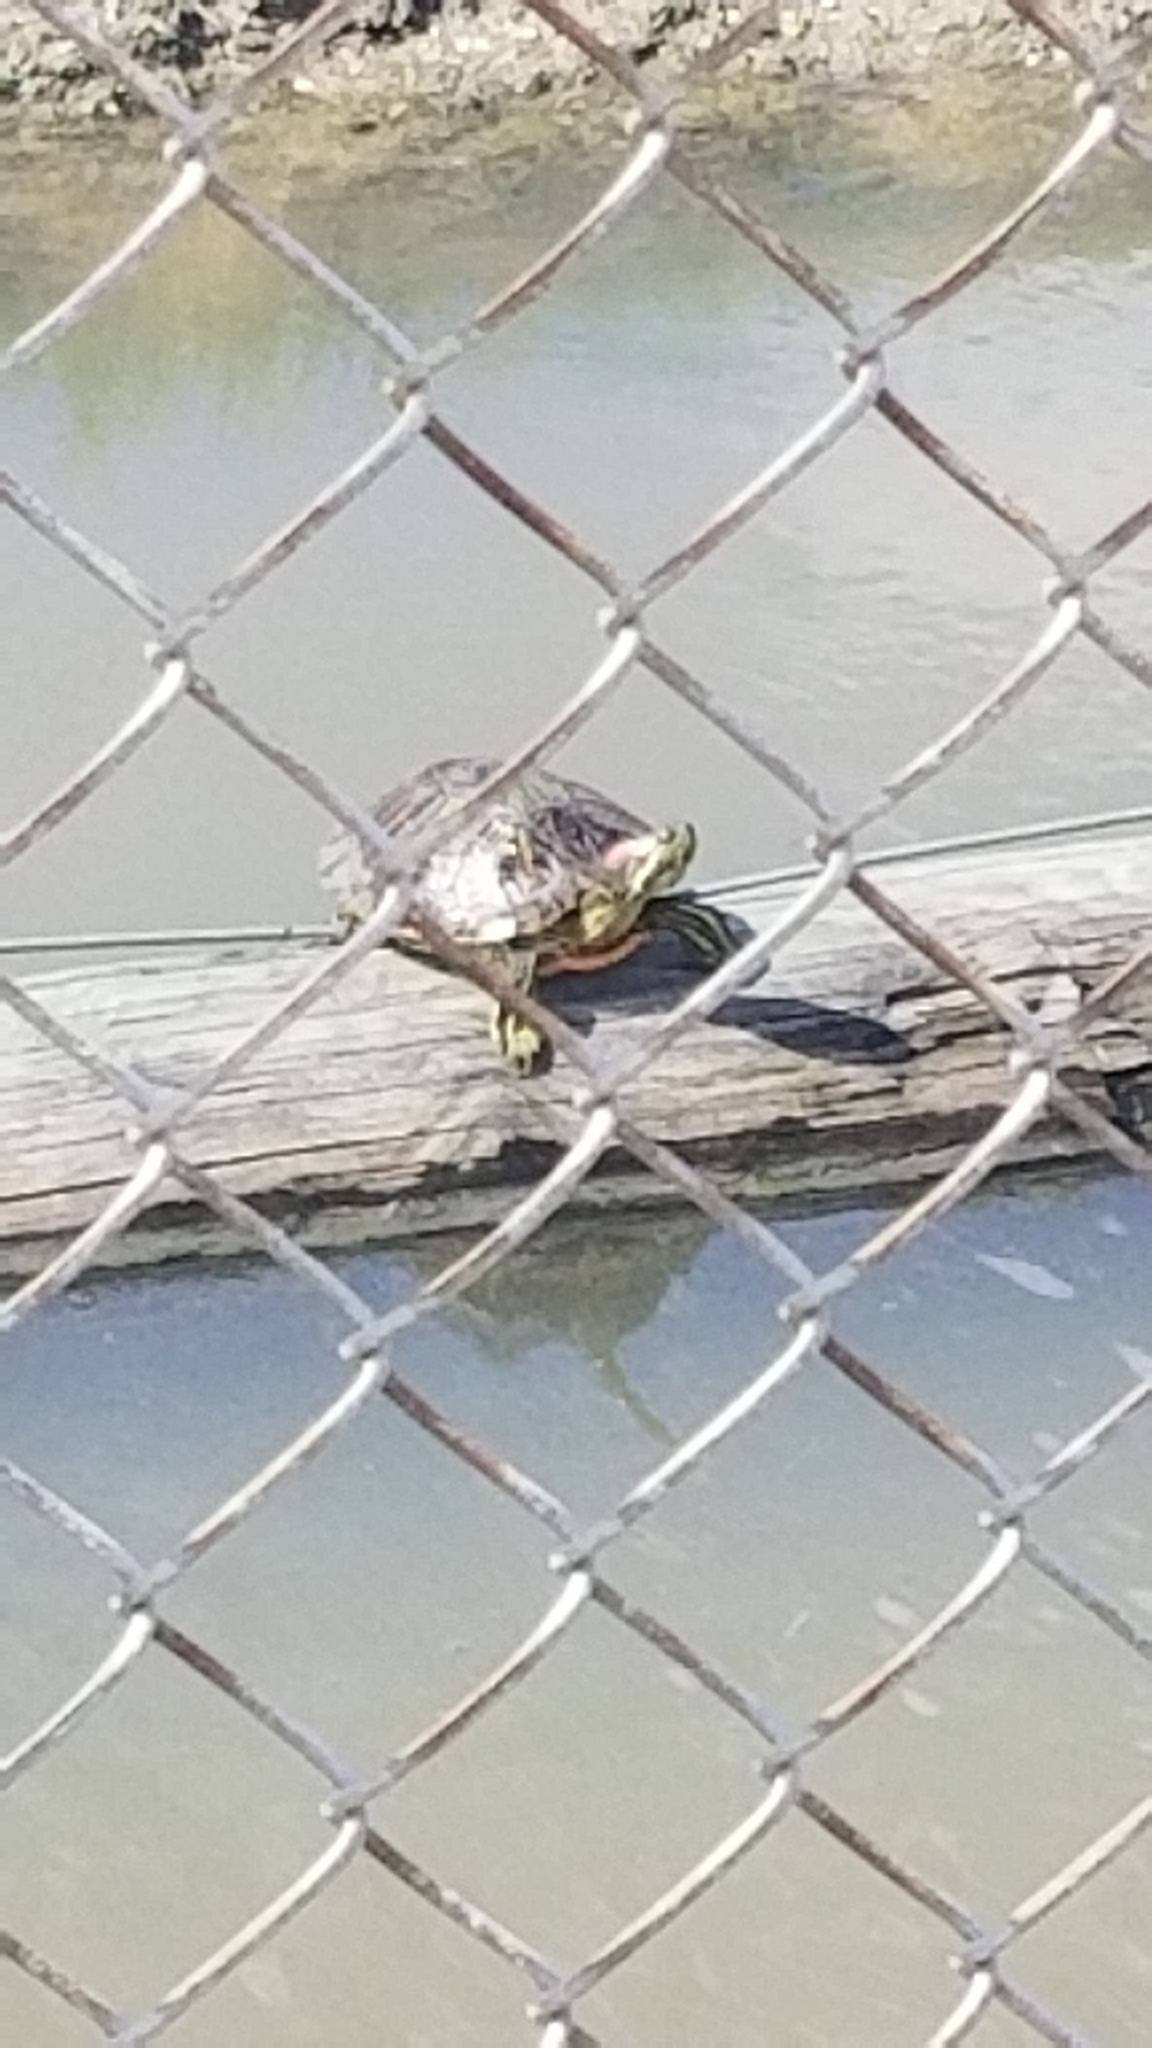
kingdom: Animalia
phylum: Chordata
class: Testudines
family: Emydidae
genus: Trachemys
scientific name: Trachemys scripta
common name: Slider
